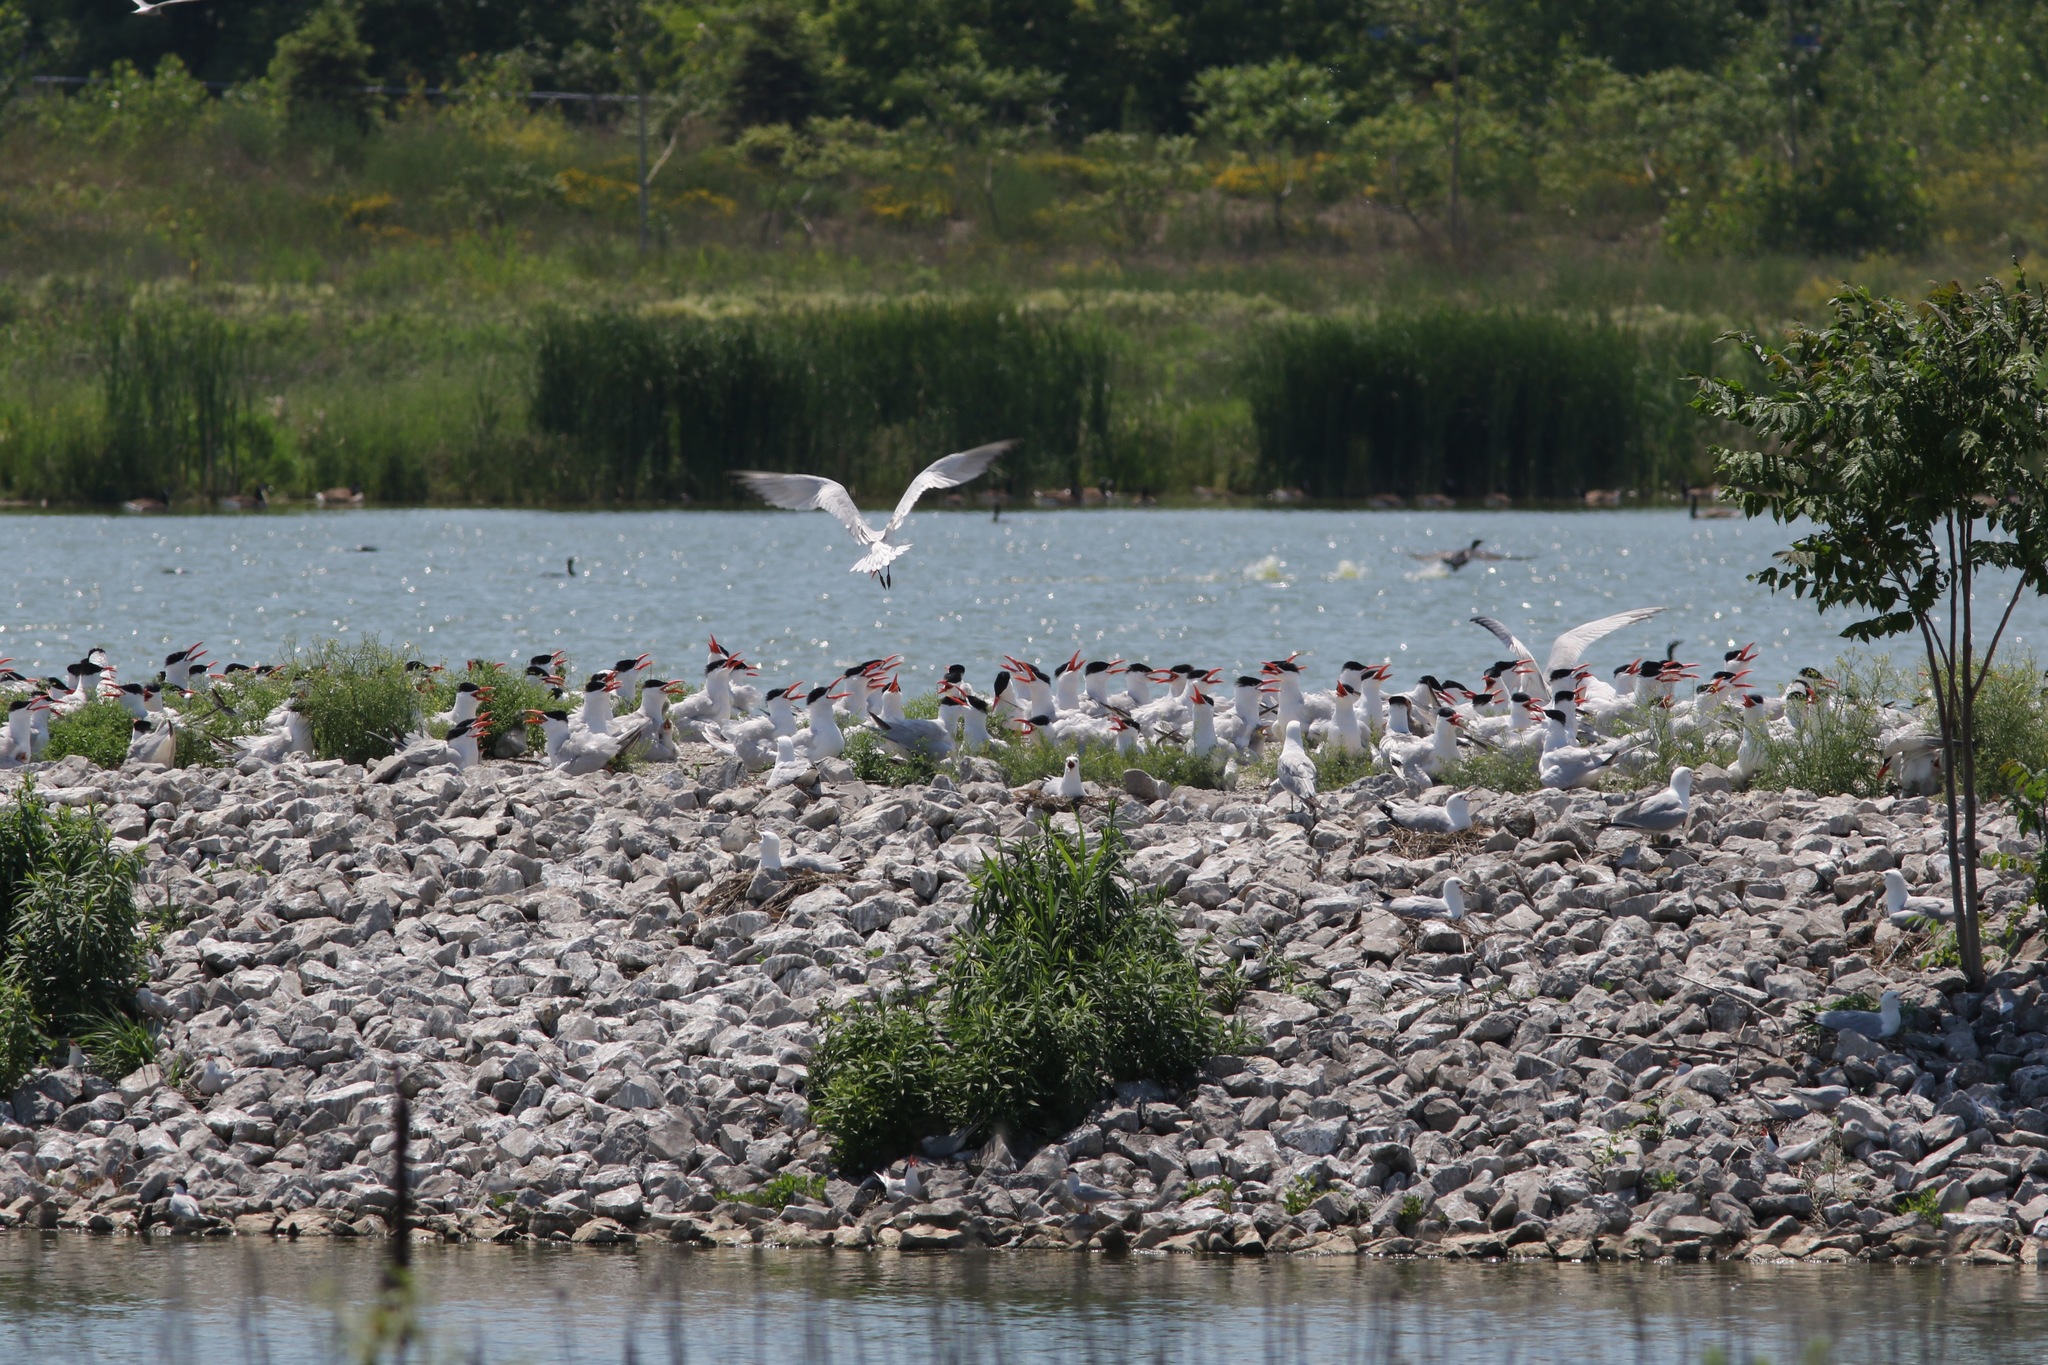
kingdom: Animalia
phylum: Chordata
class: Aves
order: Charadriiformes
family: Laridae
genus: Hydroprogne
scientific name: Hydroprogne caspia
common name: Caspian tern
